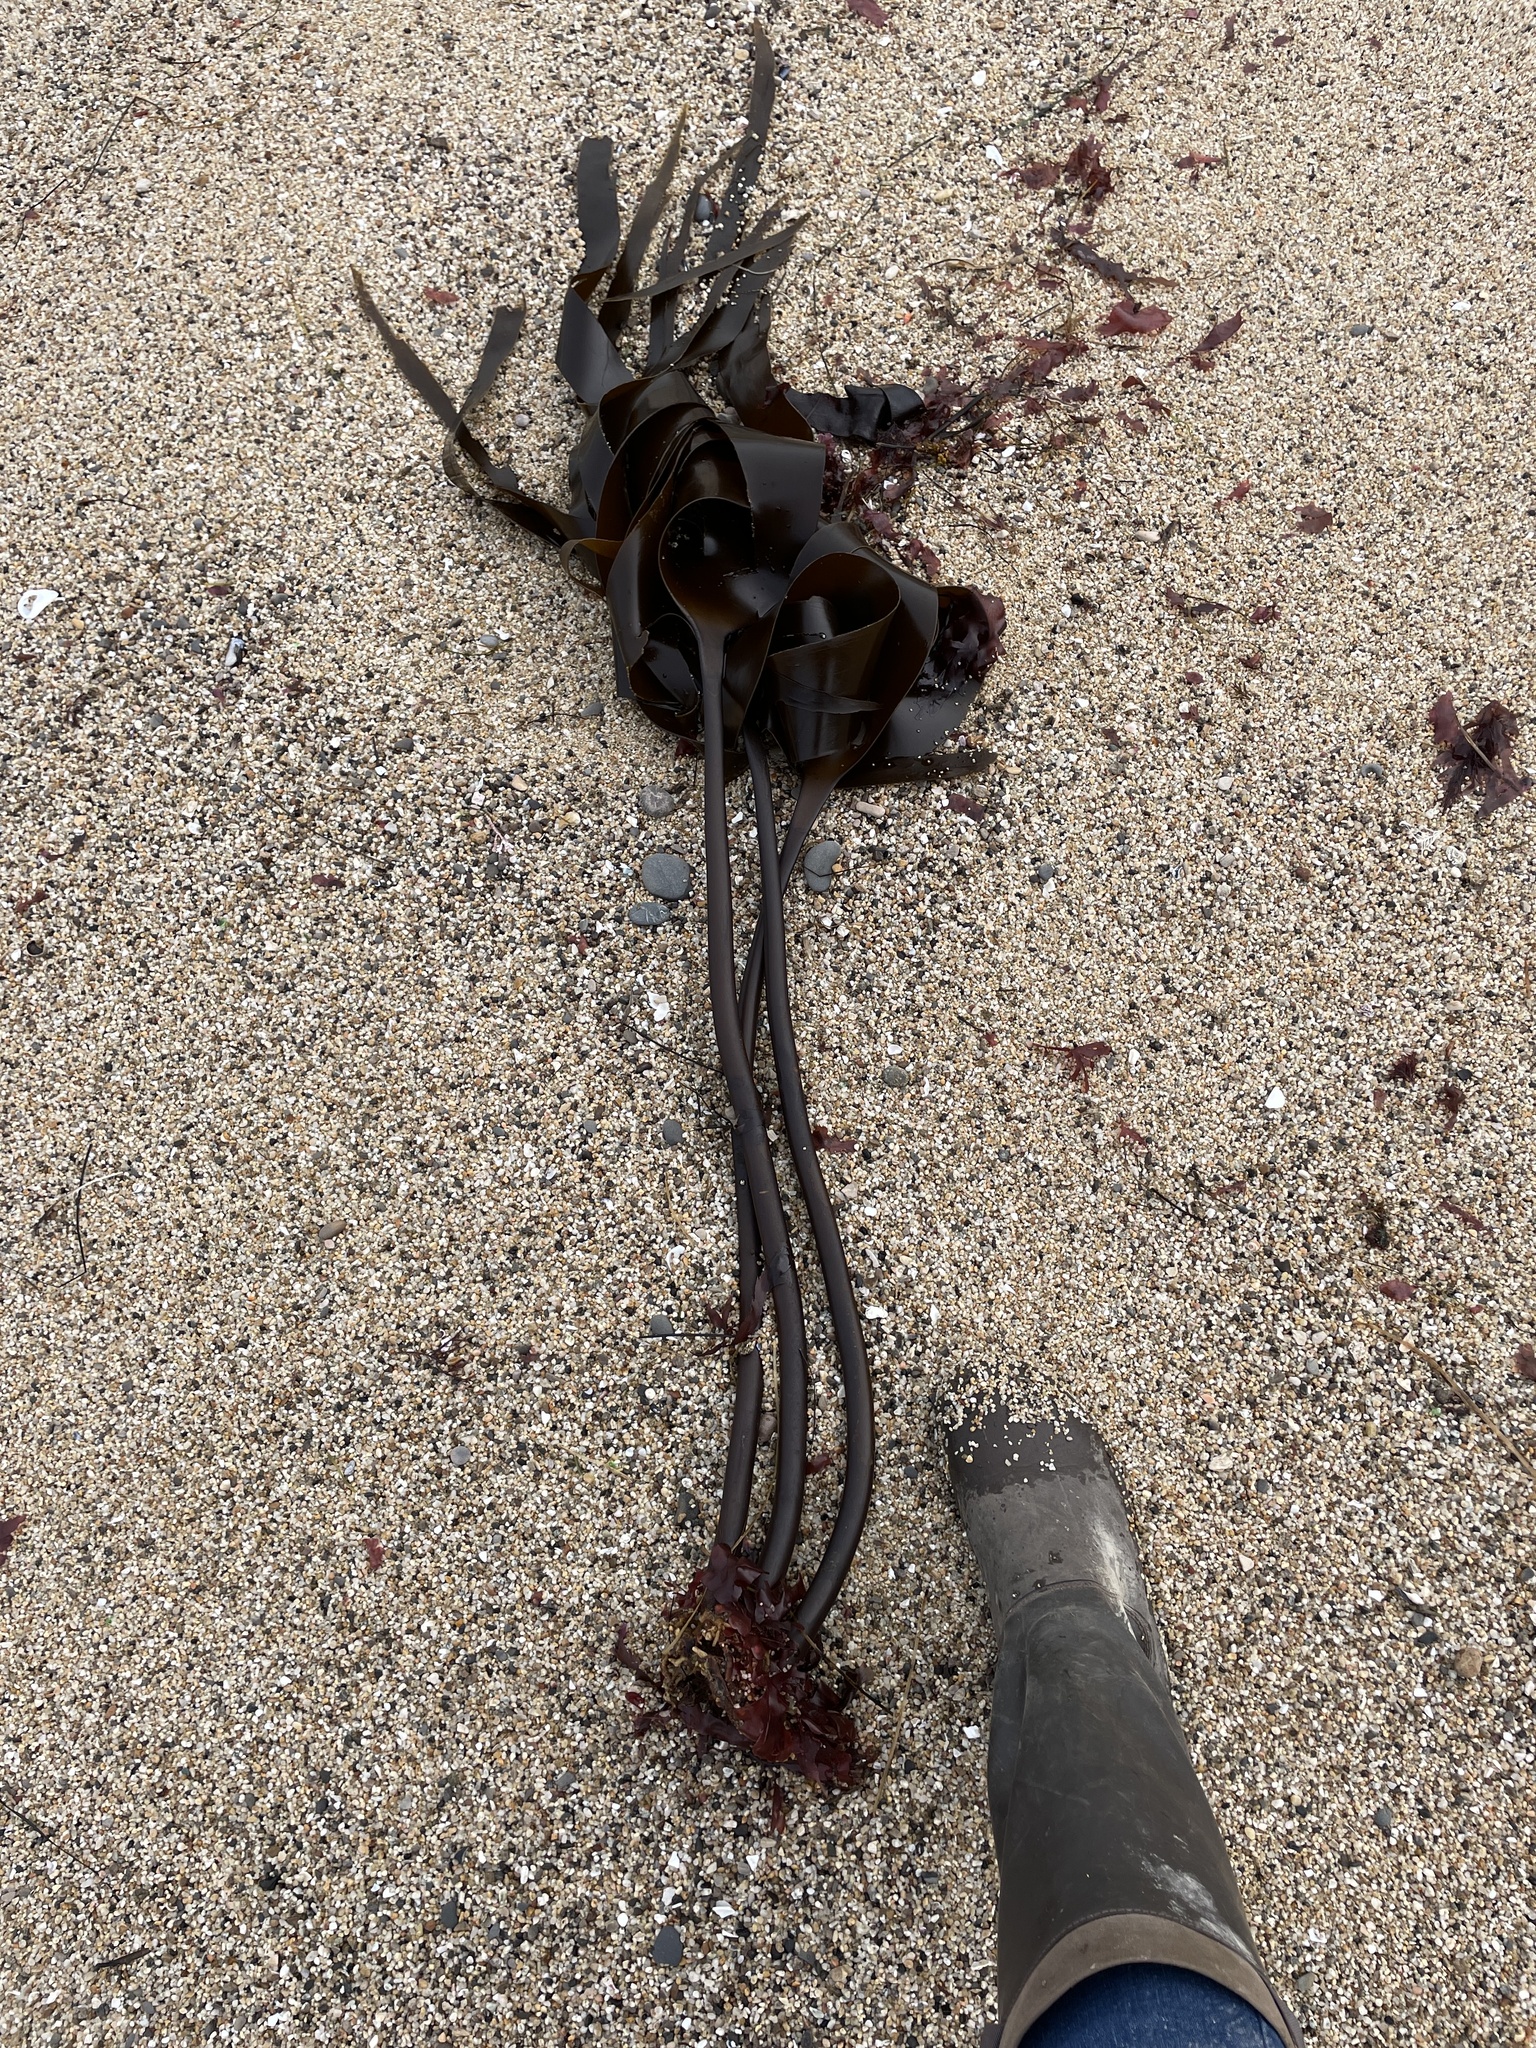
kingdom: Chromista
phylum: Ochrophyta
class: Phaeophyceae
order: Laminariales
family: Laminariaceae
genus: Laminaria
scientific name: Laminaria setchellii
